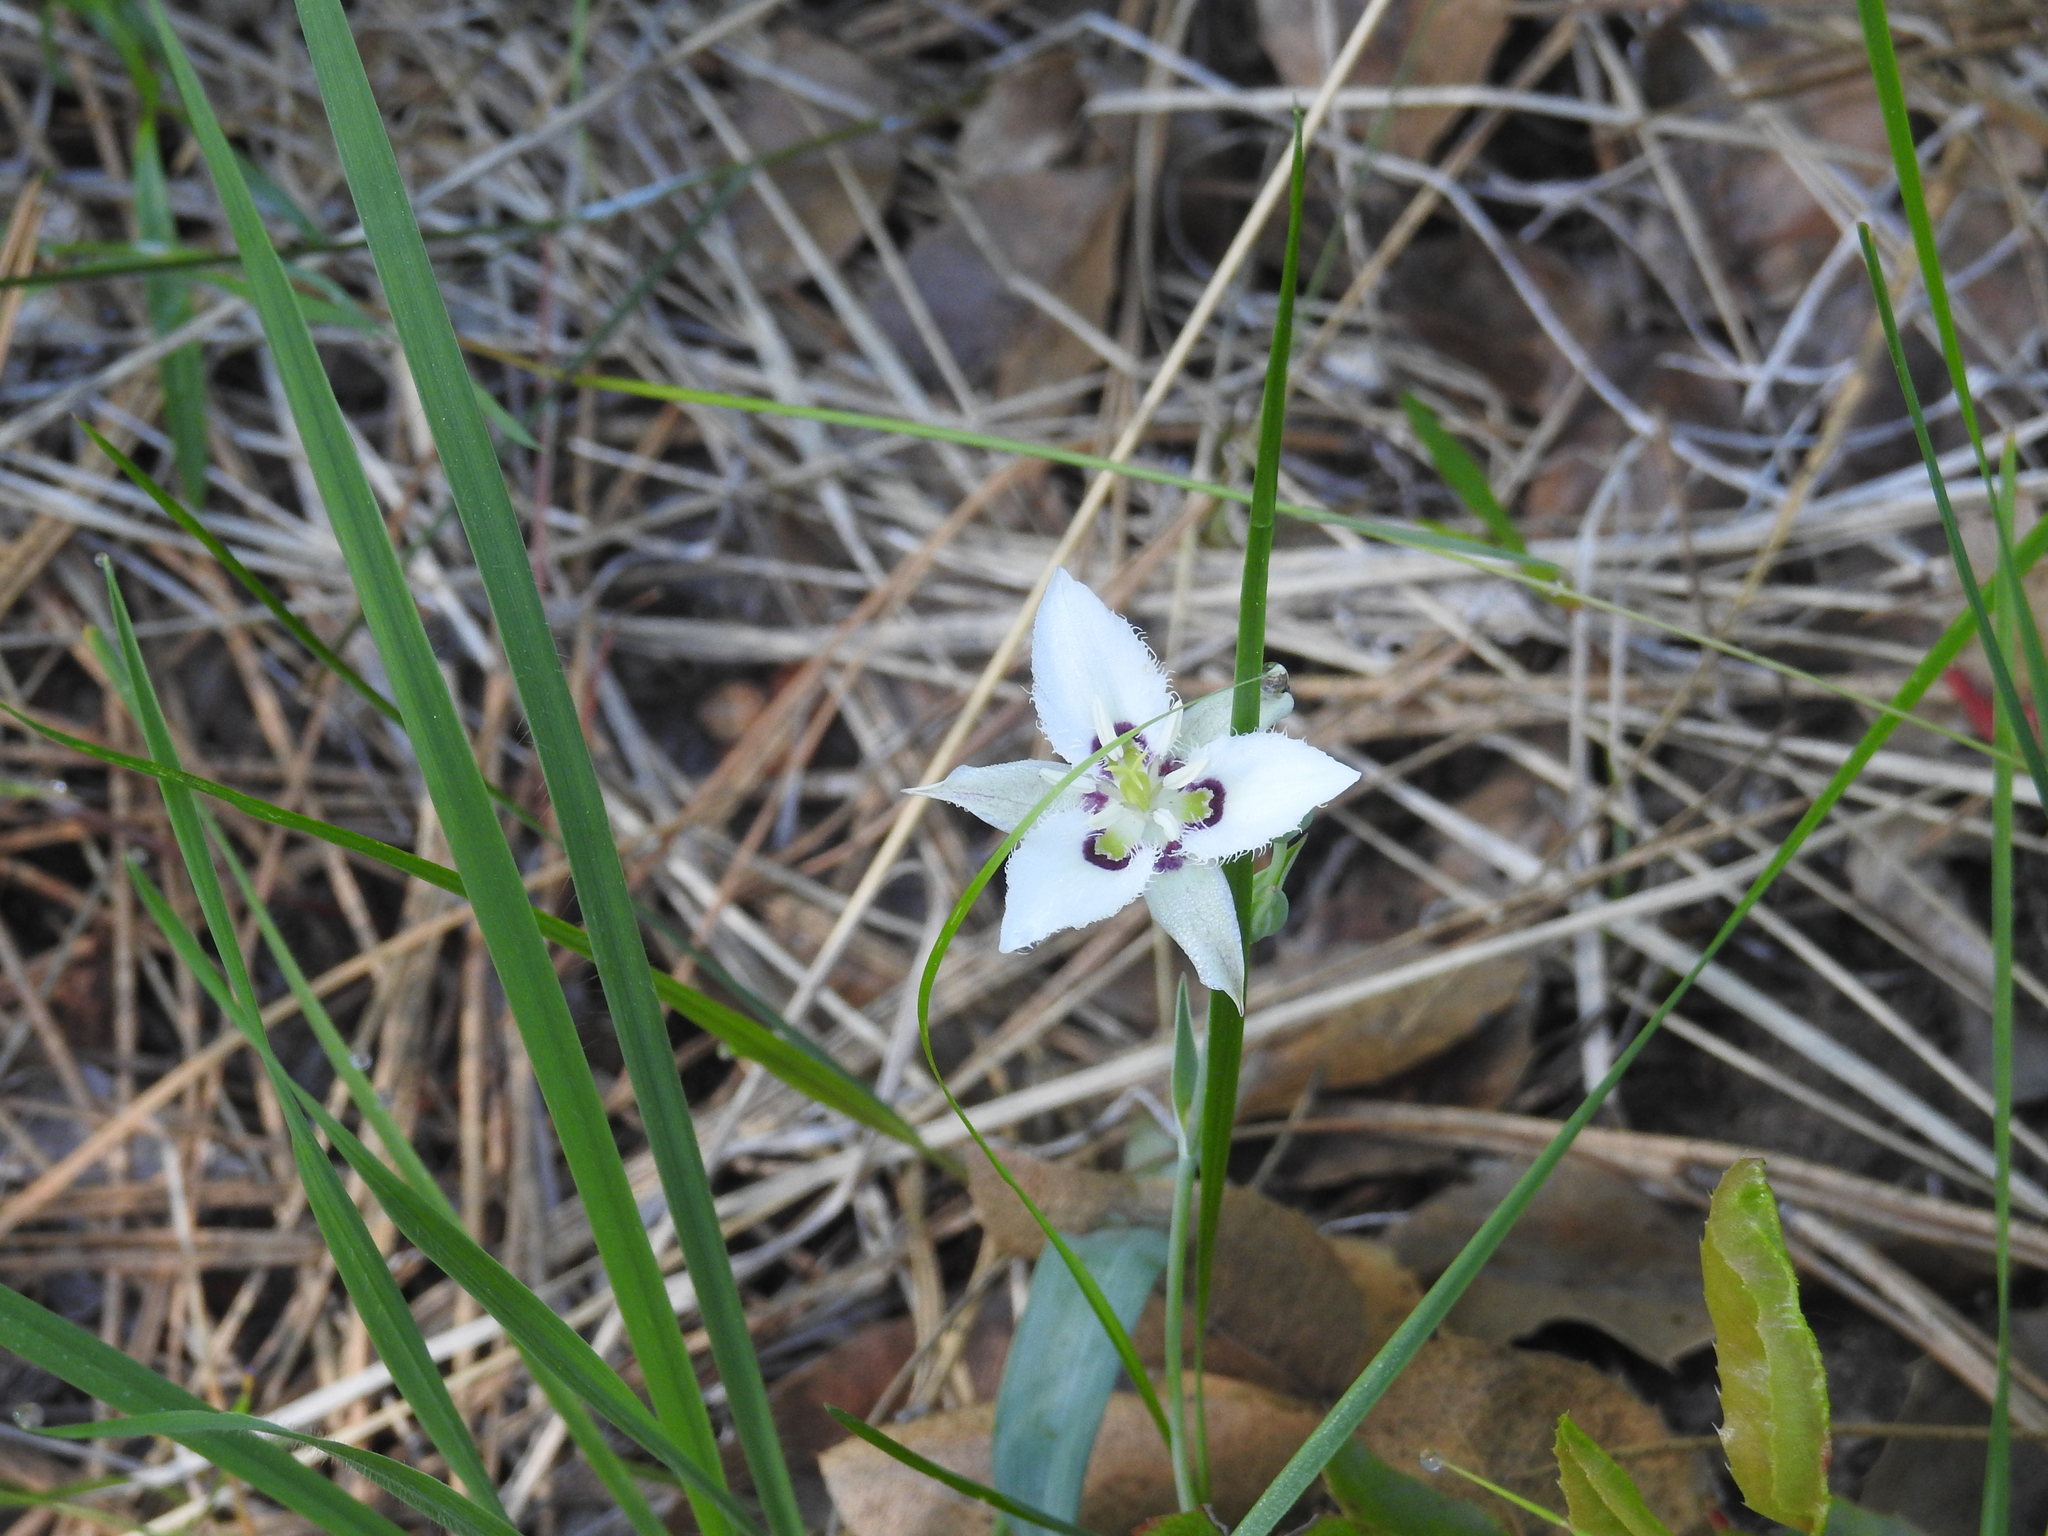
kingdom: Plantae
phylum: Tracheophyta
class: Liliopsida
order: Liliales
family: Liliaceae
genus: Calochortus
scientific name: Calochortus lyallii
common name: Lyall's mariposa lily
